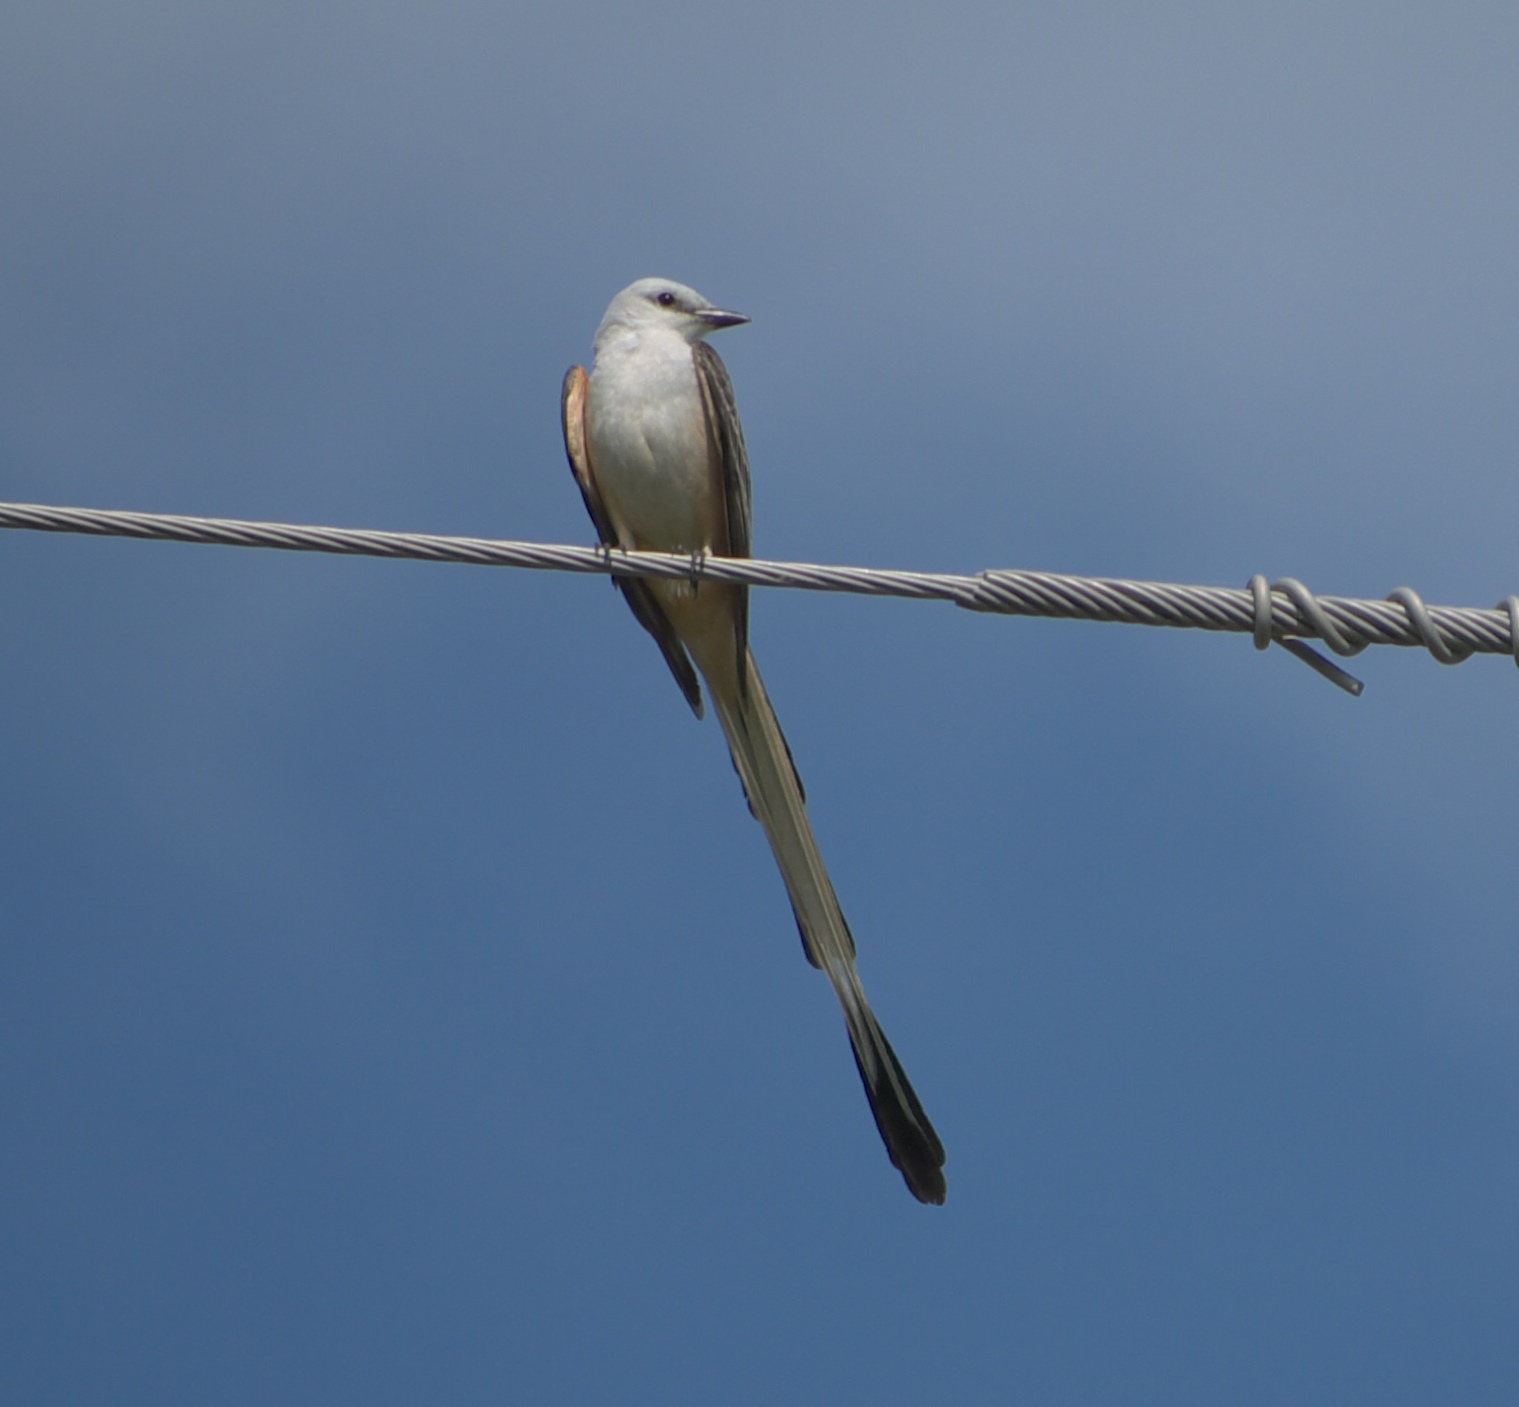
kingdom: Animalia
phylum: Chordata
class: Aves
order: Passeriformes
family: Tyrannidae
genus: Tyrannus
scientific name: Tyrannus forficatus
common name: Scissor-tailed flycatcher
